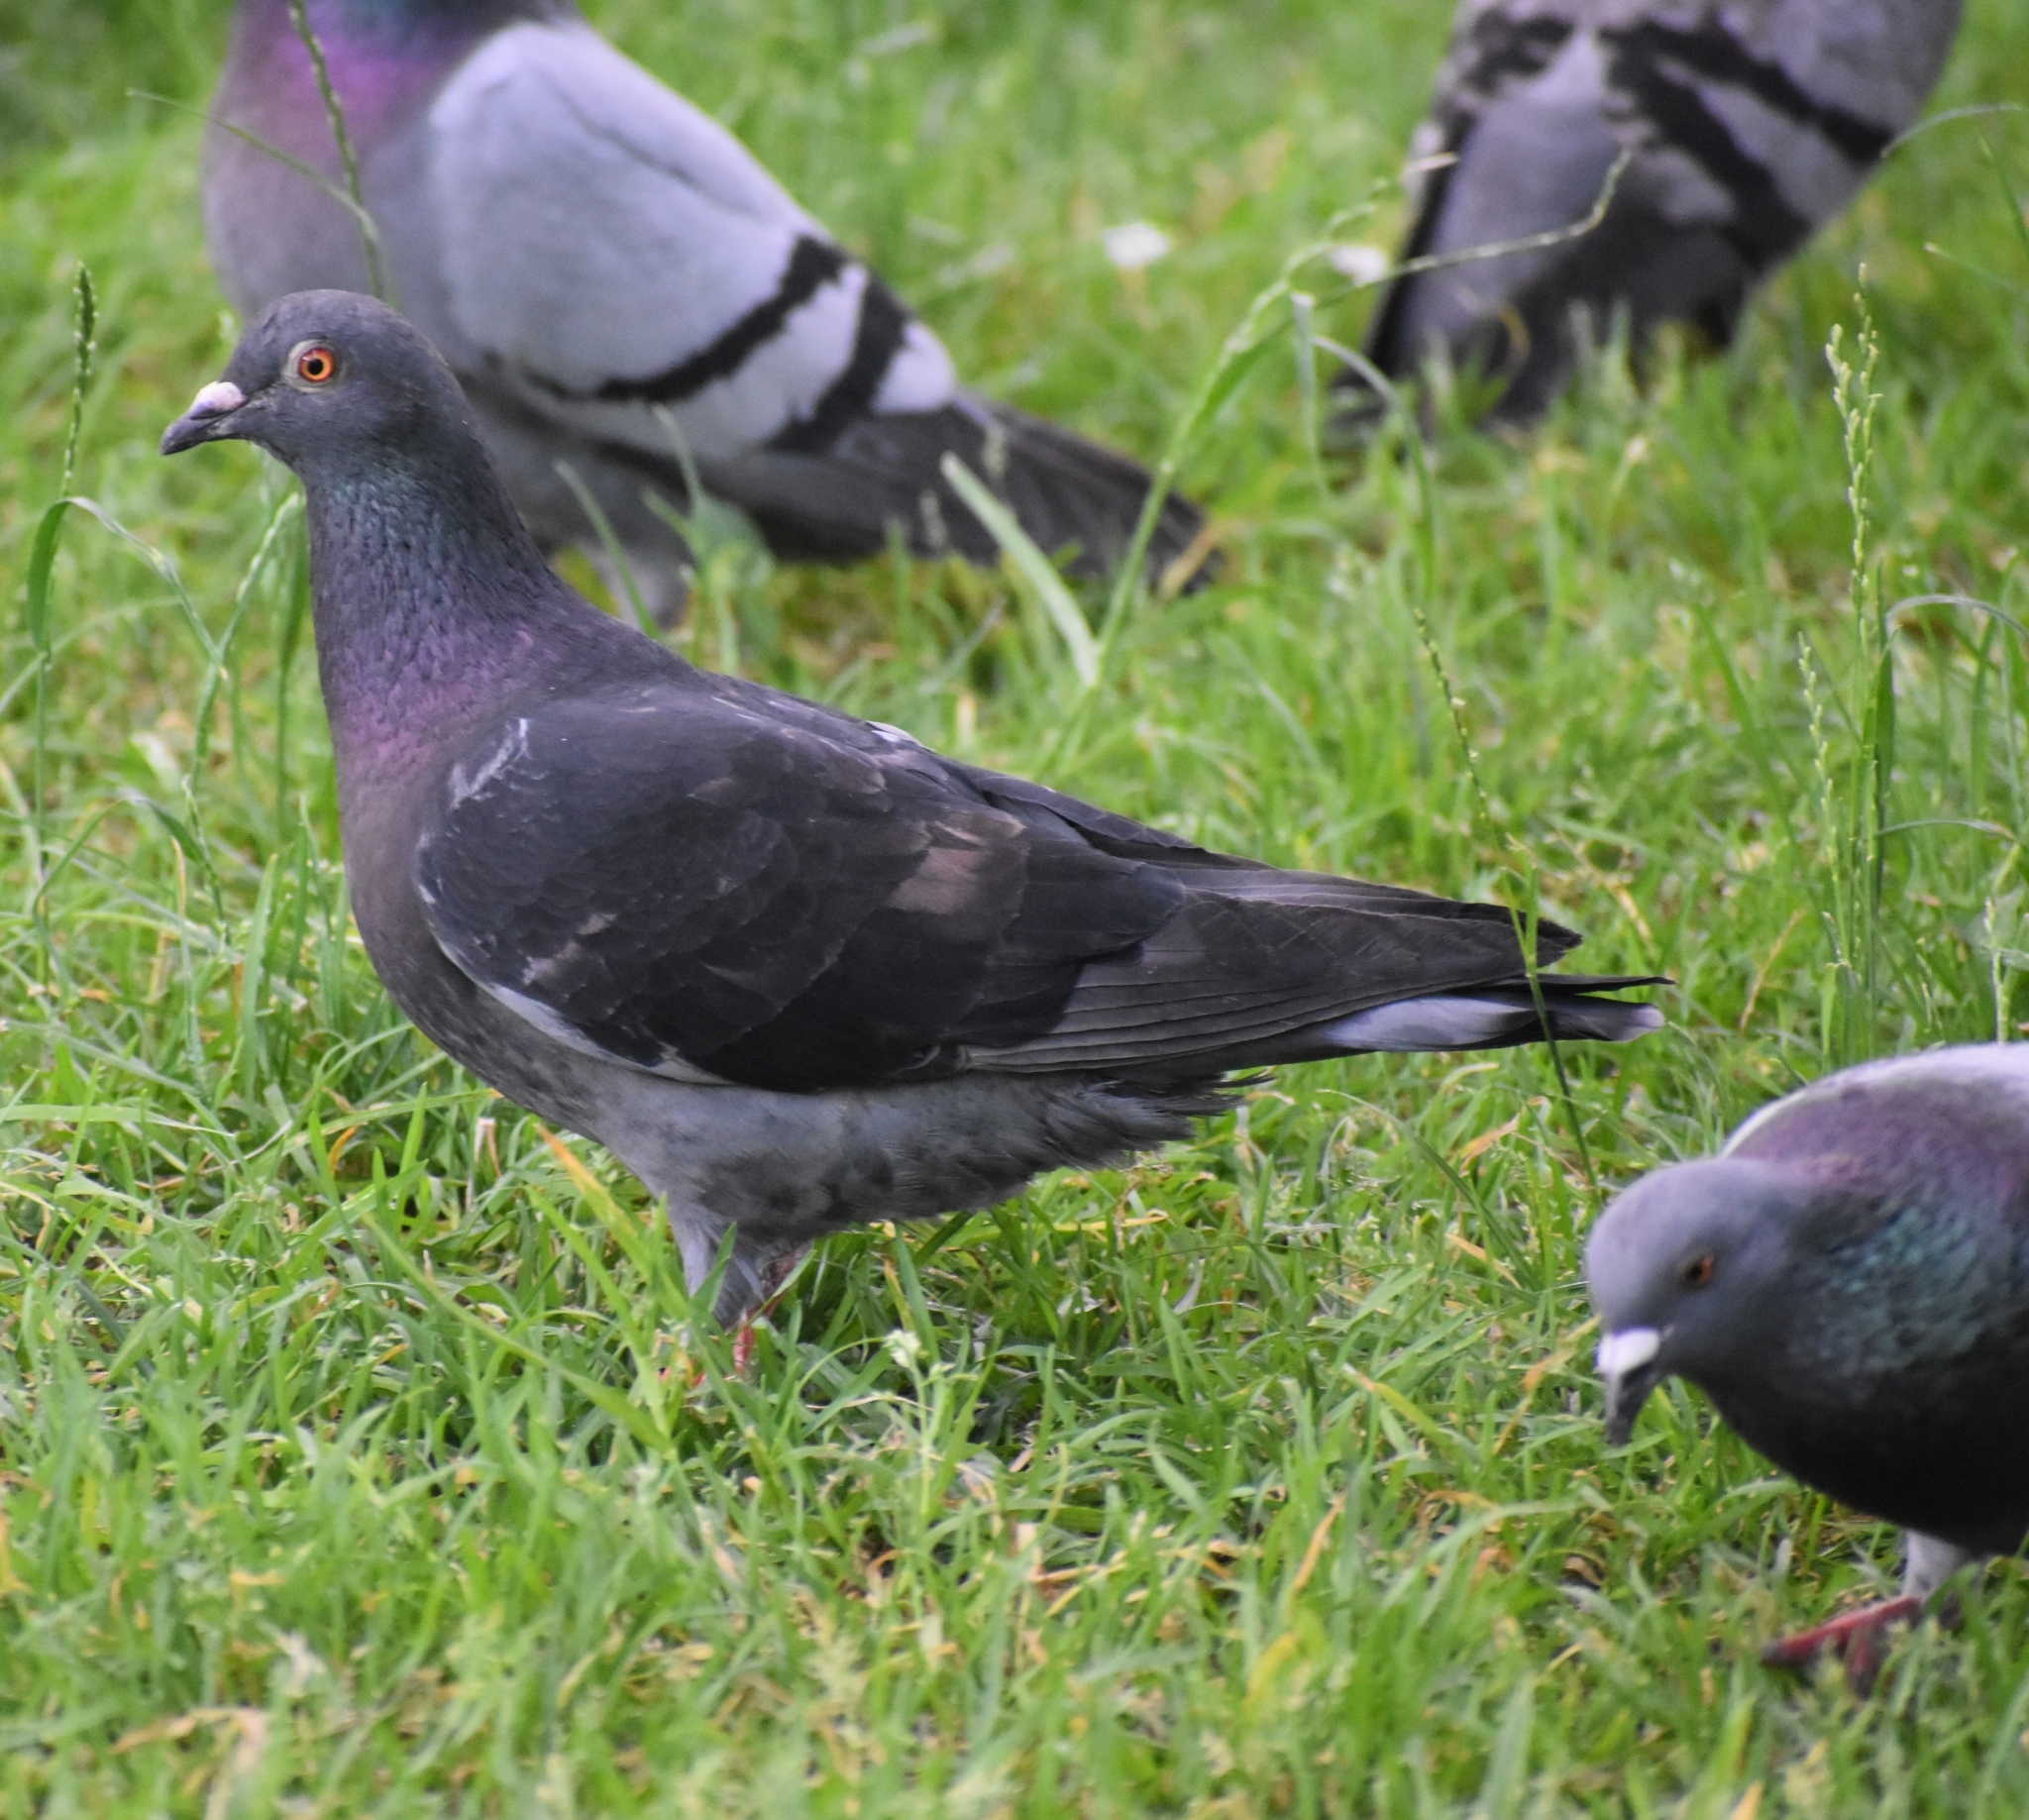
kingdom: Animalia
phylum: Chordata
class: Aves
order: Columbiformes
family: Columbidae
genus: Columba
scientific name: Columba livia
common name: Rock pigeon
